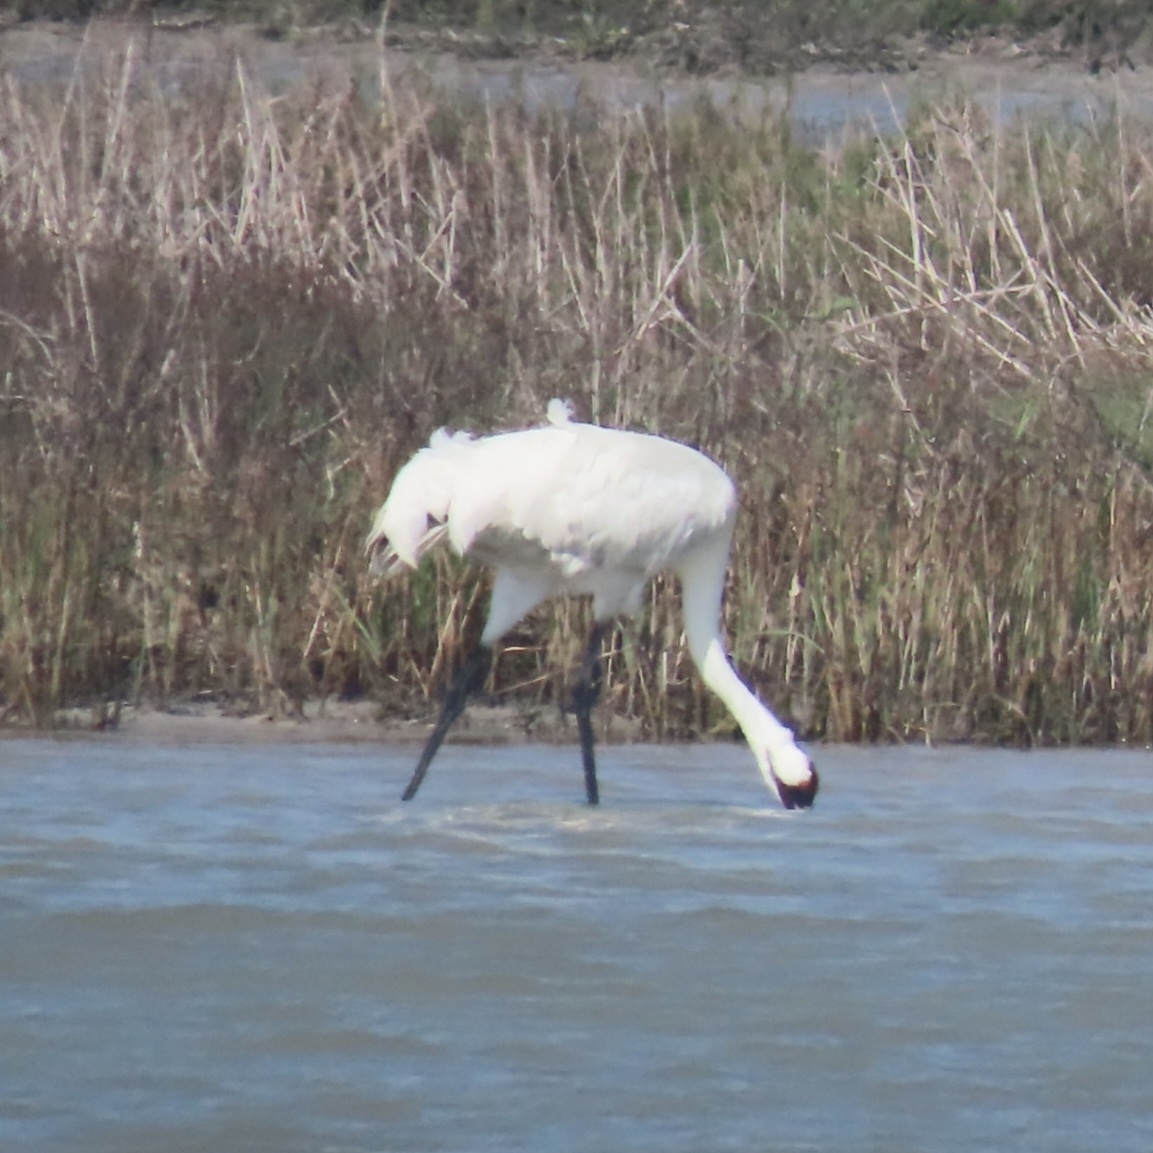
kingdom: Animalia
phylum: Chordata
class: Aves
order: Gruiformes
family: Gruidae
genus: Grus
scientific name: Grus americana
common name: Whooping crane
